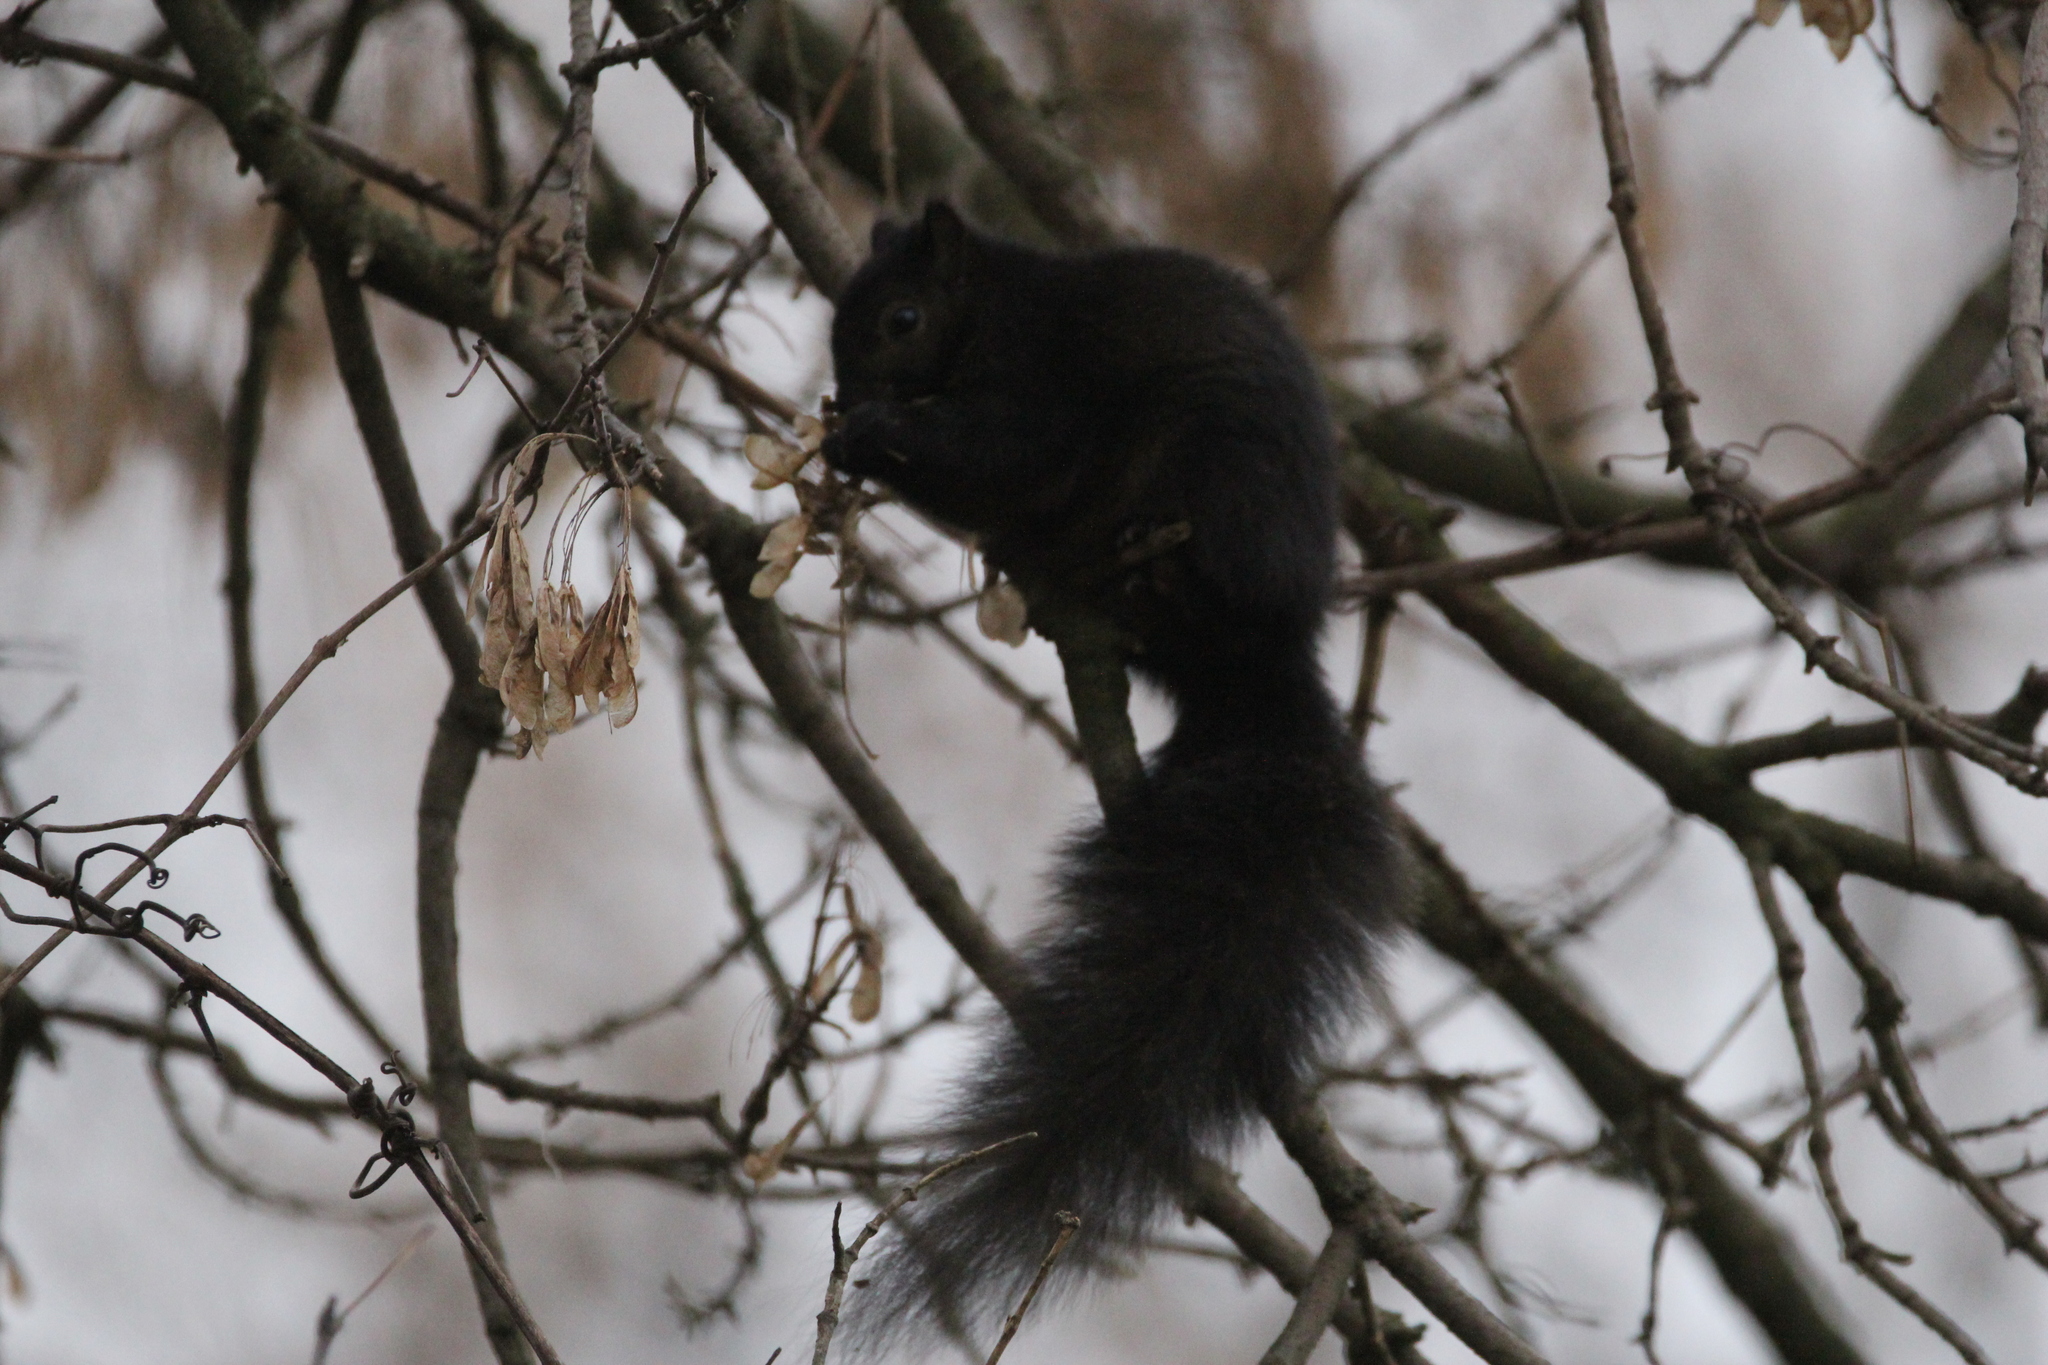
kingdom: Animalia
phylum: Chordata
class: Mammalia
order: Rodentia
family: Sciuridae
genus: Sciurus
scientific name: Sciurus carolinensis
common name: Eastern gray squirrel
